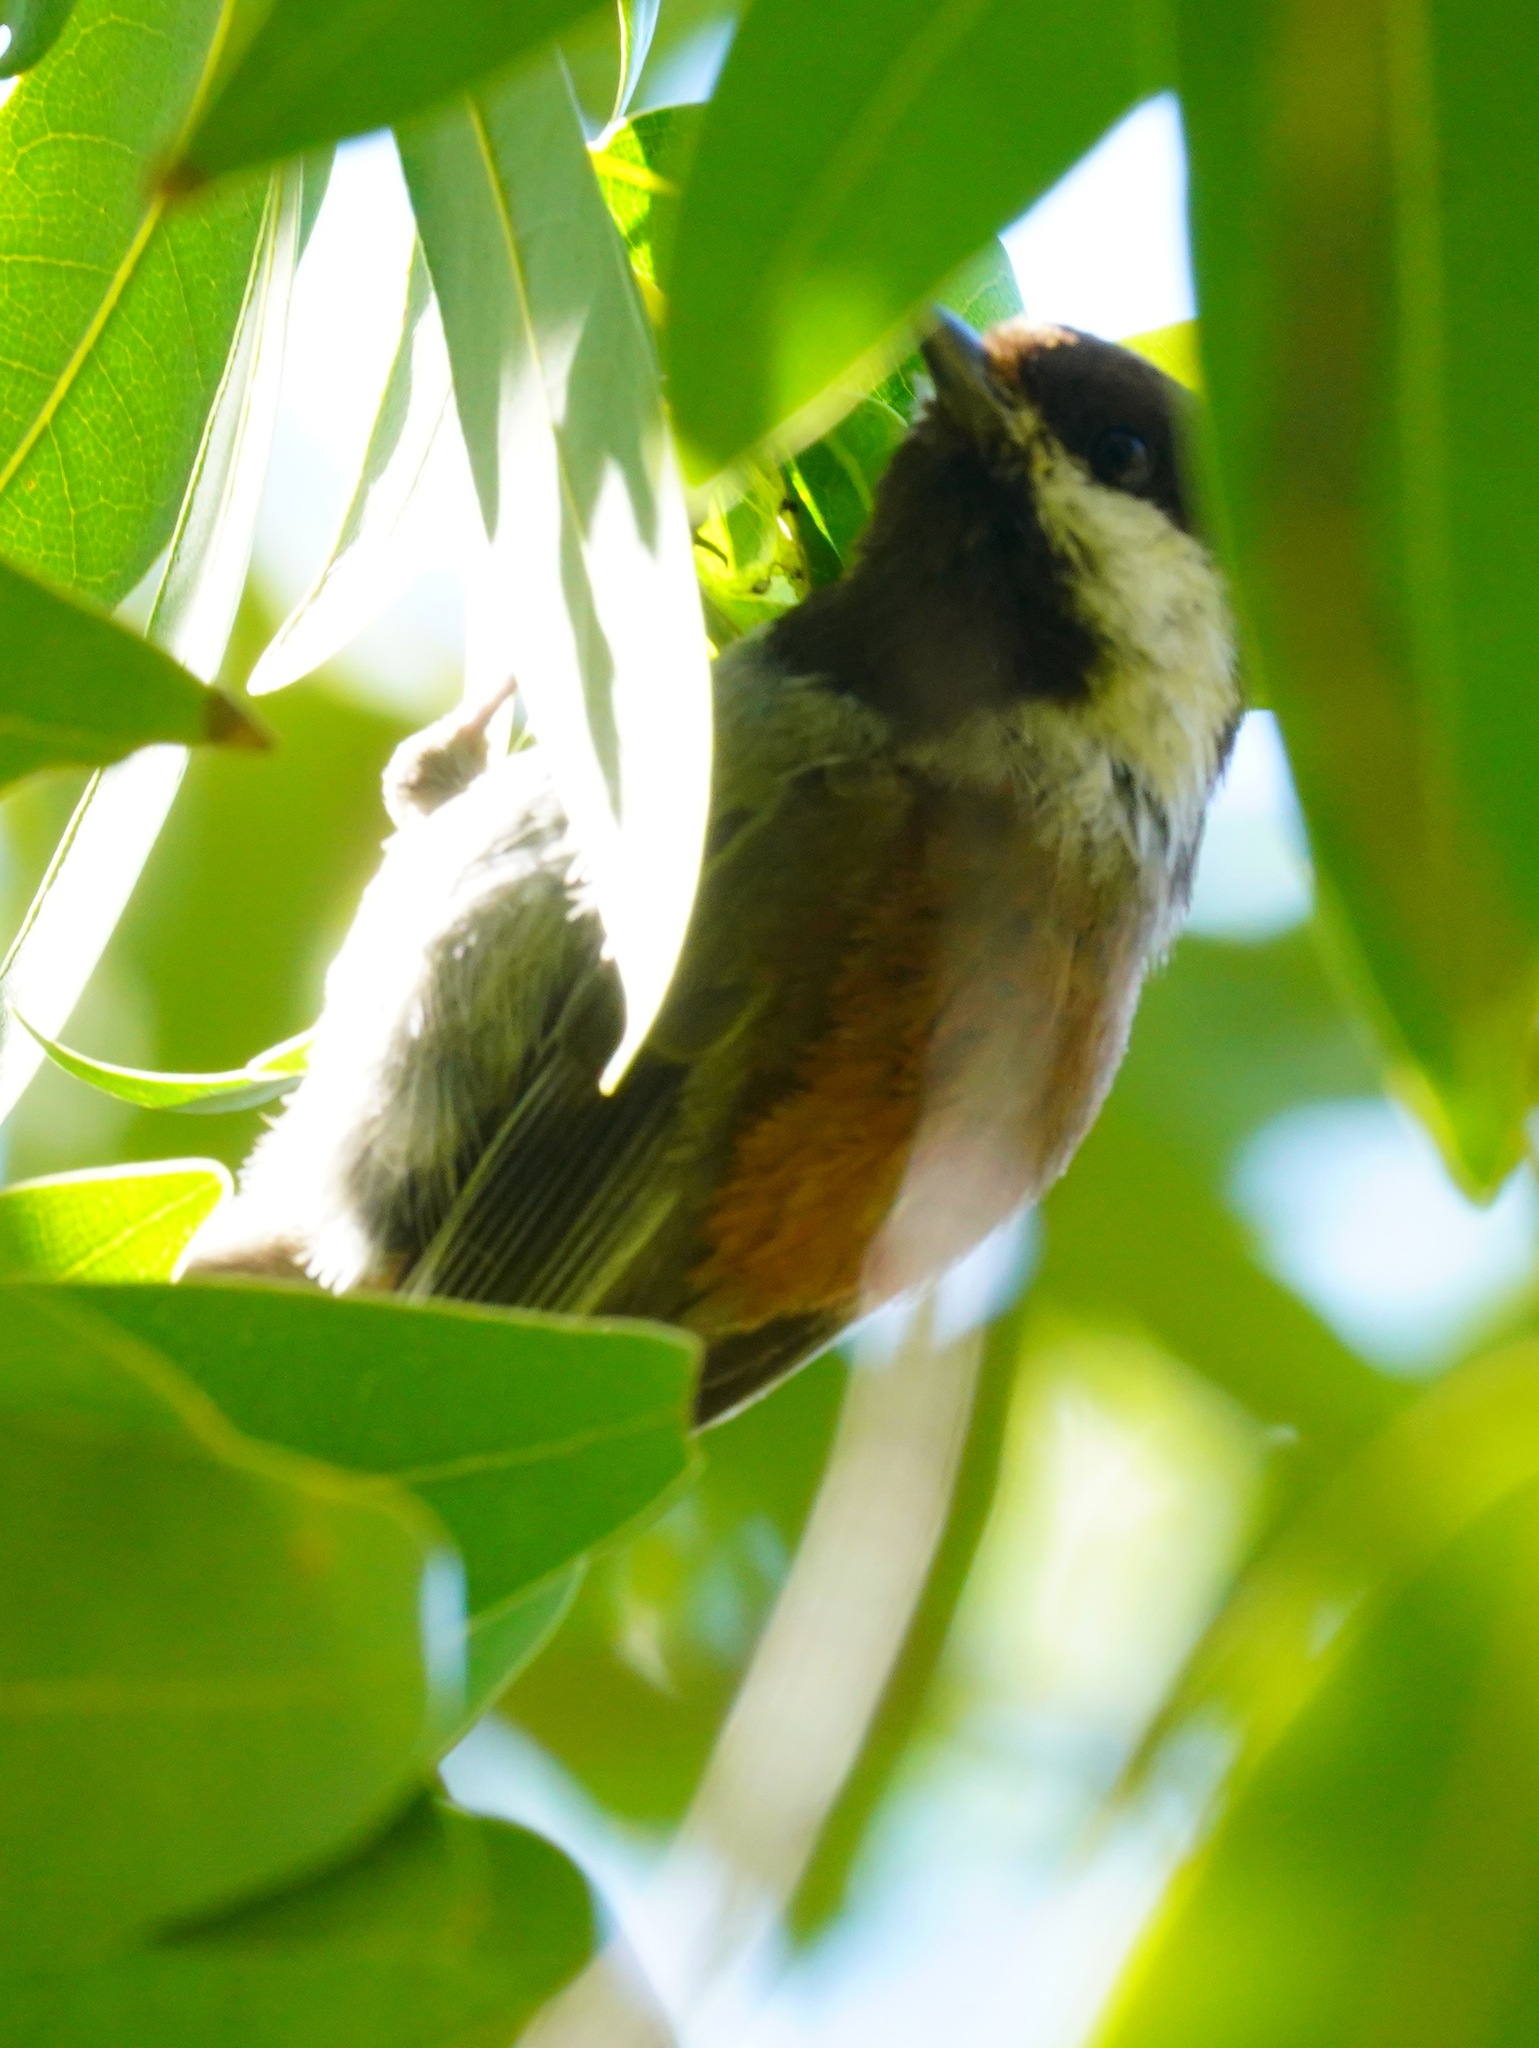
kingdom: Animalia
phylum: Chordata
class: Aves
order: Passeriformes
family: Paridae
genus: Poecile
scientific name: Poecile rufescens
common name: Chestnut-backed chickadee
